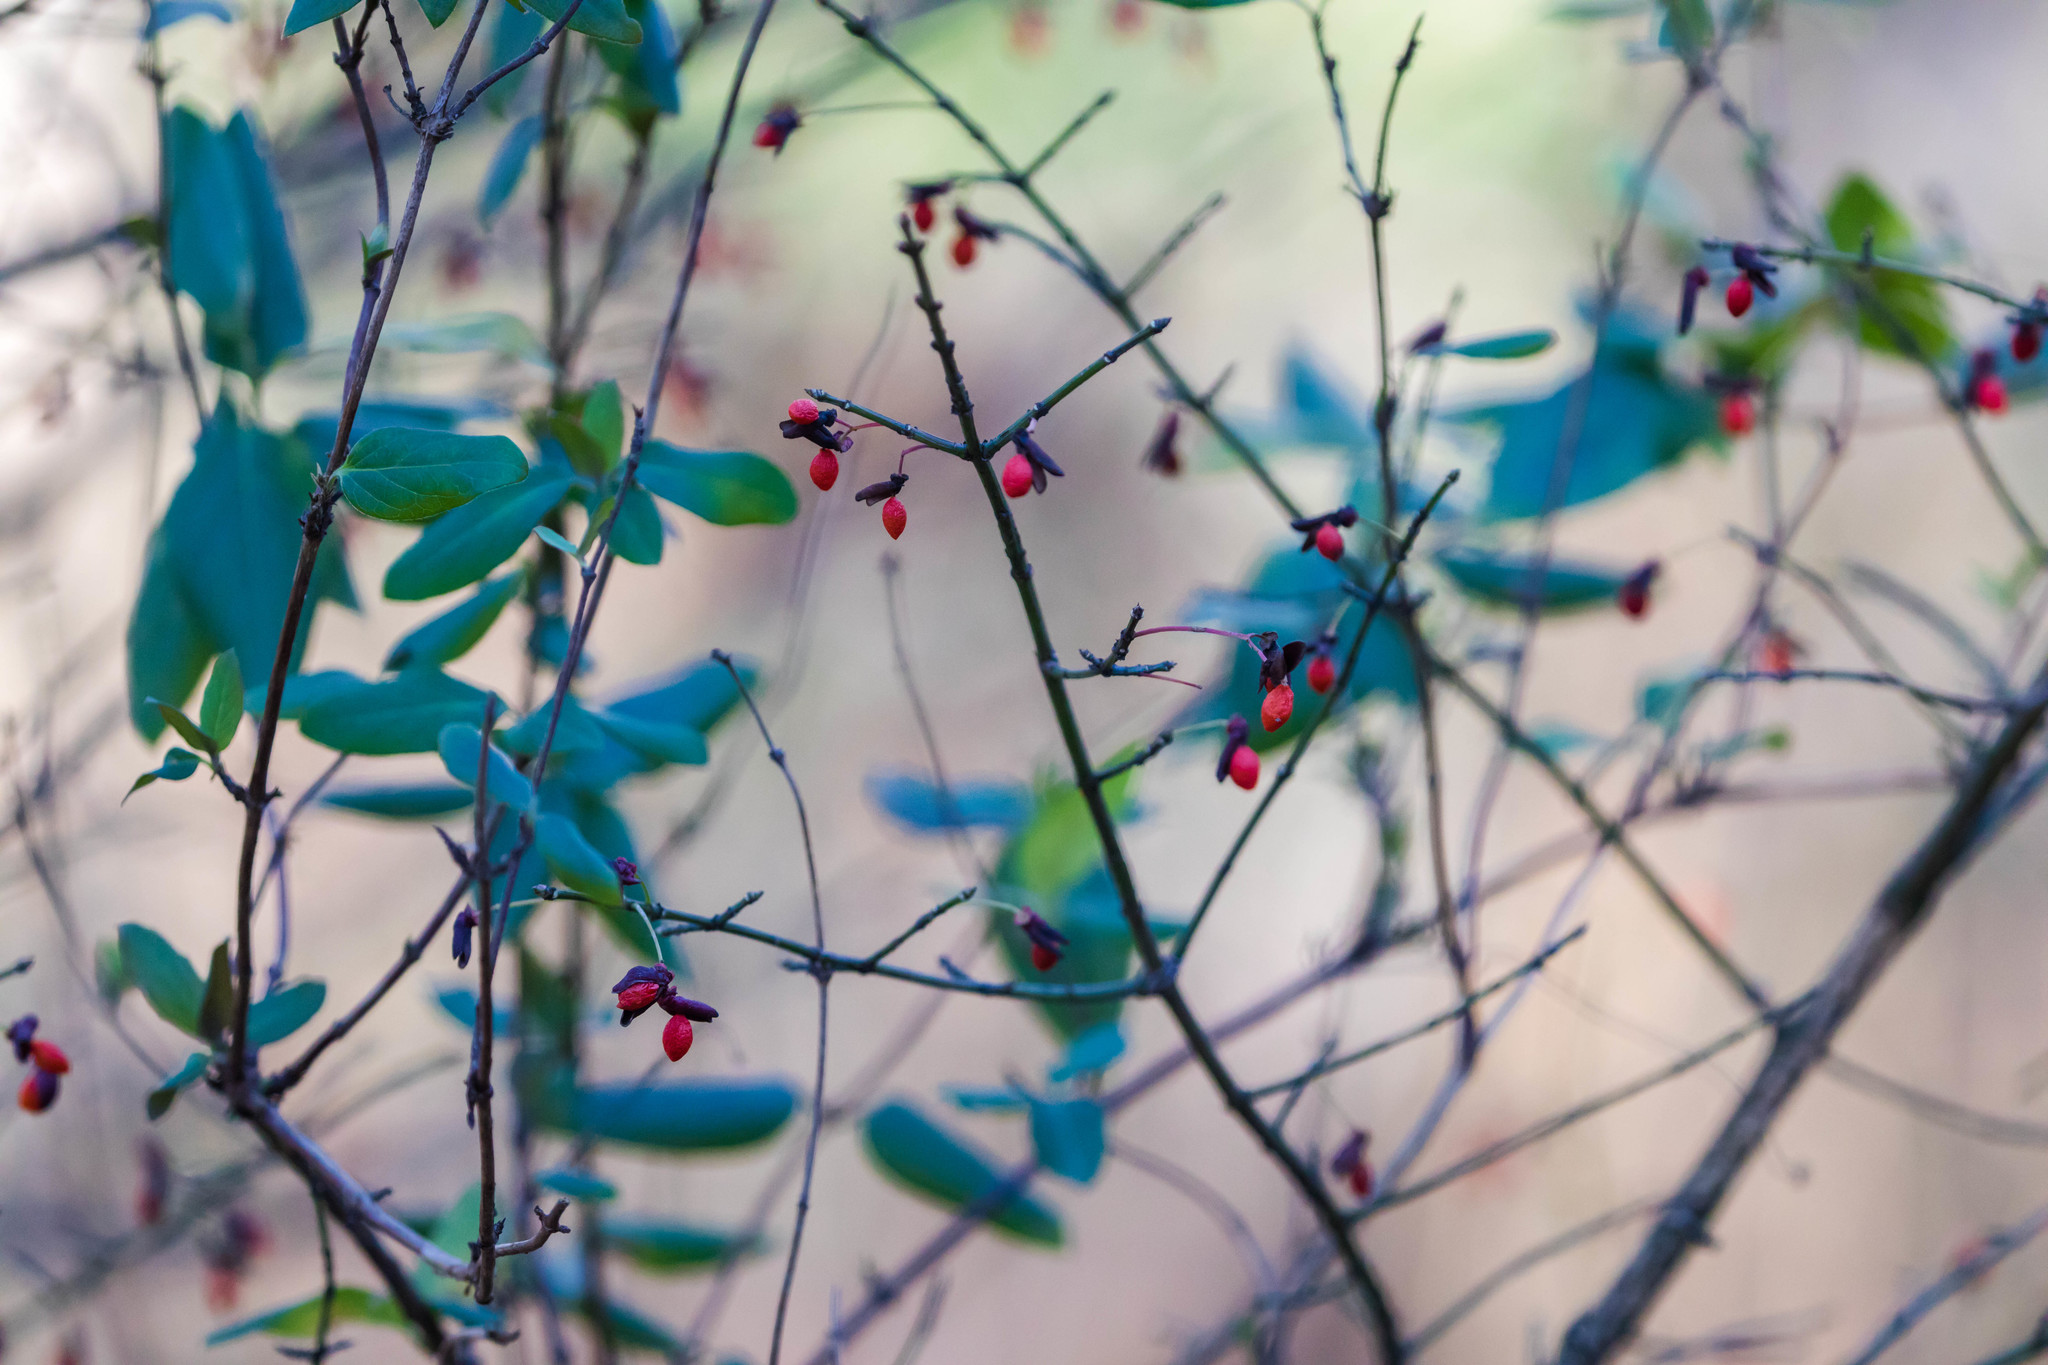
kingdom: Plantae
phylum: Tracheophyta
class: Magnoliopsida
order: Celastrales
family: Celastraceae
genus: Euonymus
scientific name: Euonymus alatus
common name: Winged euonymus
